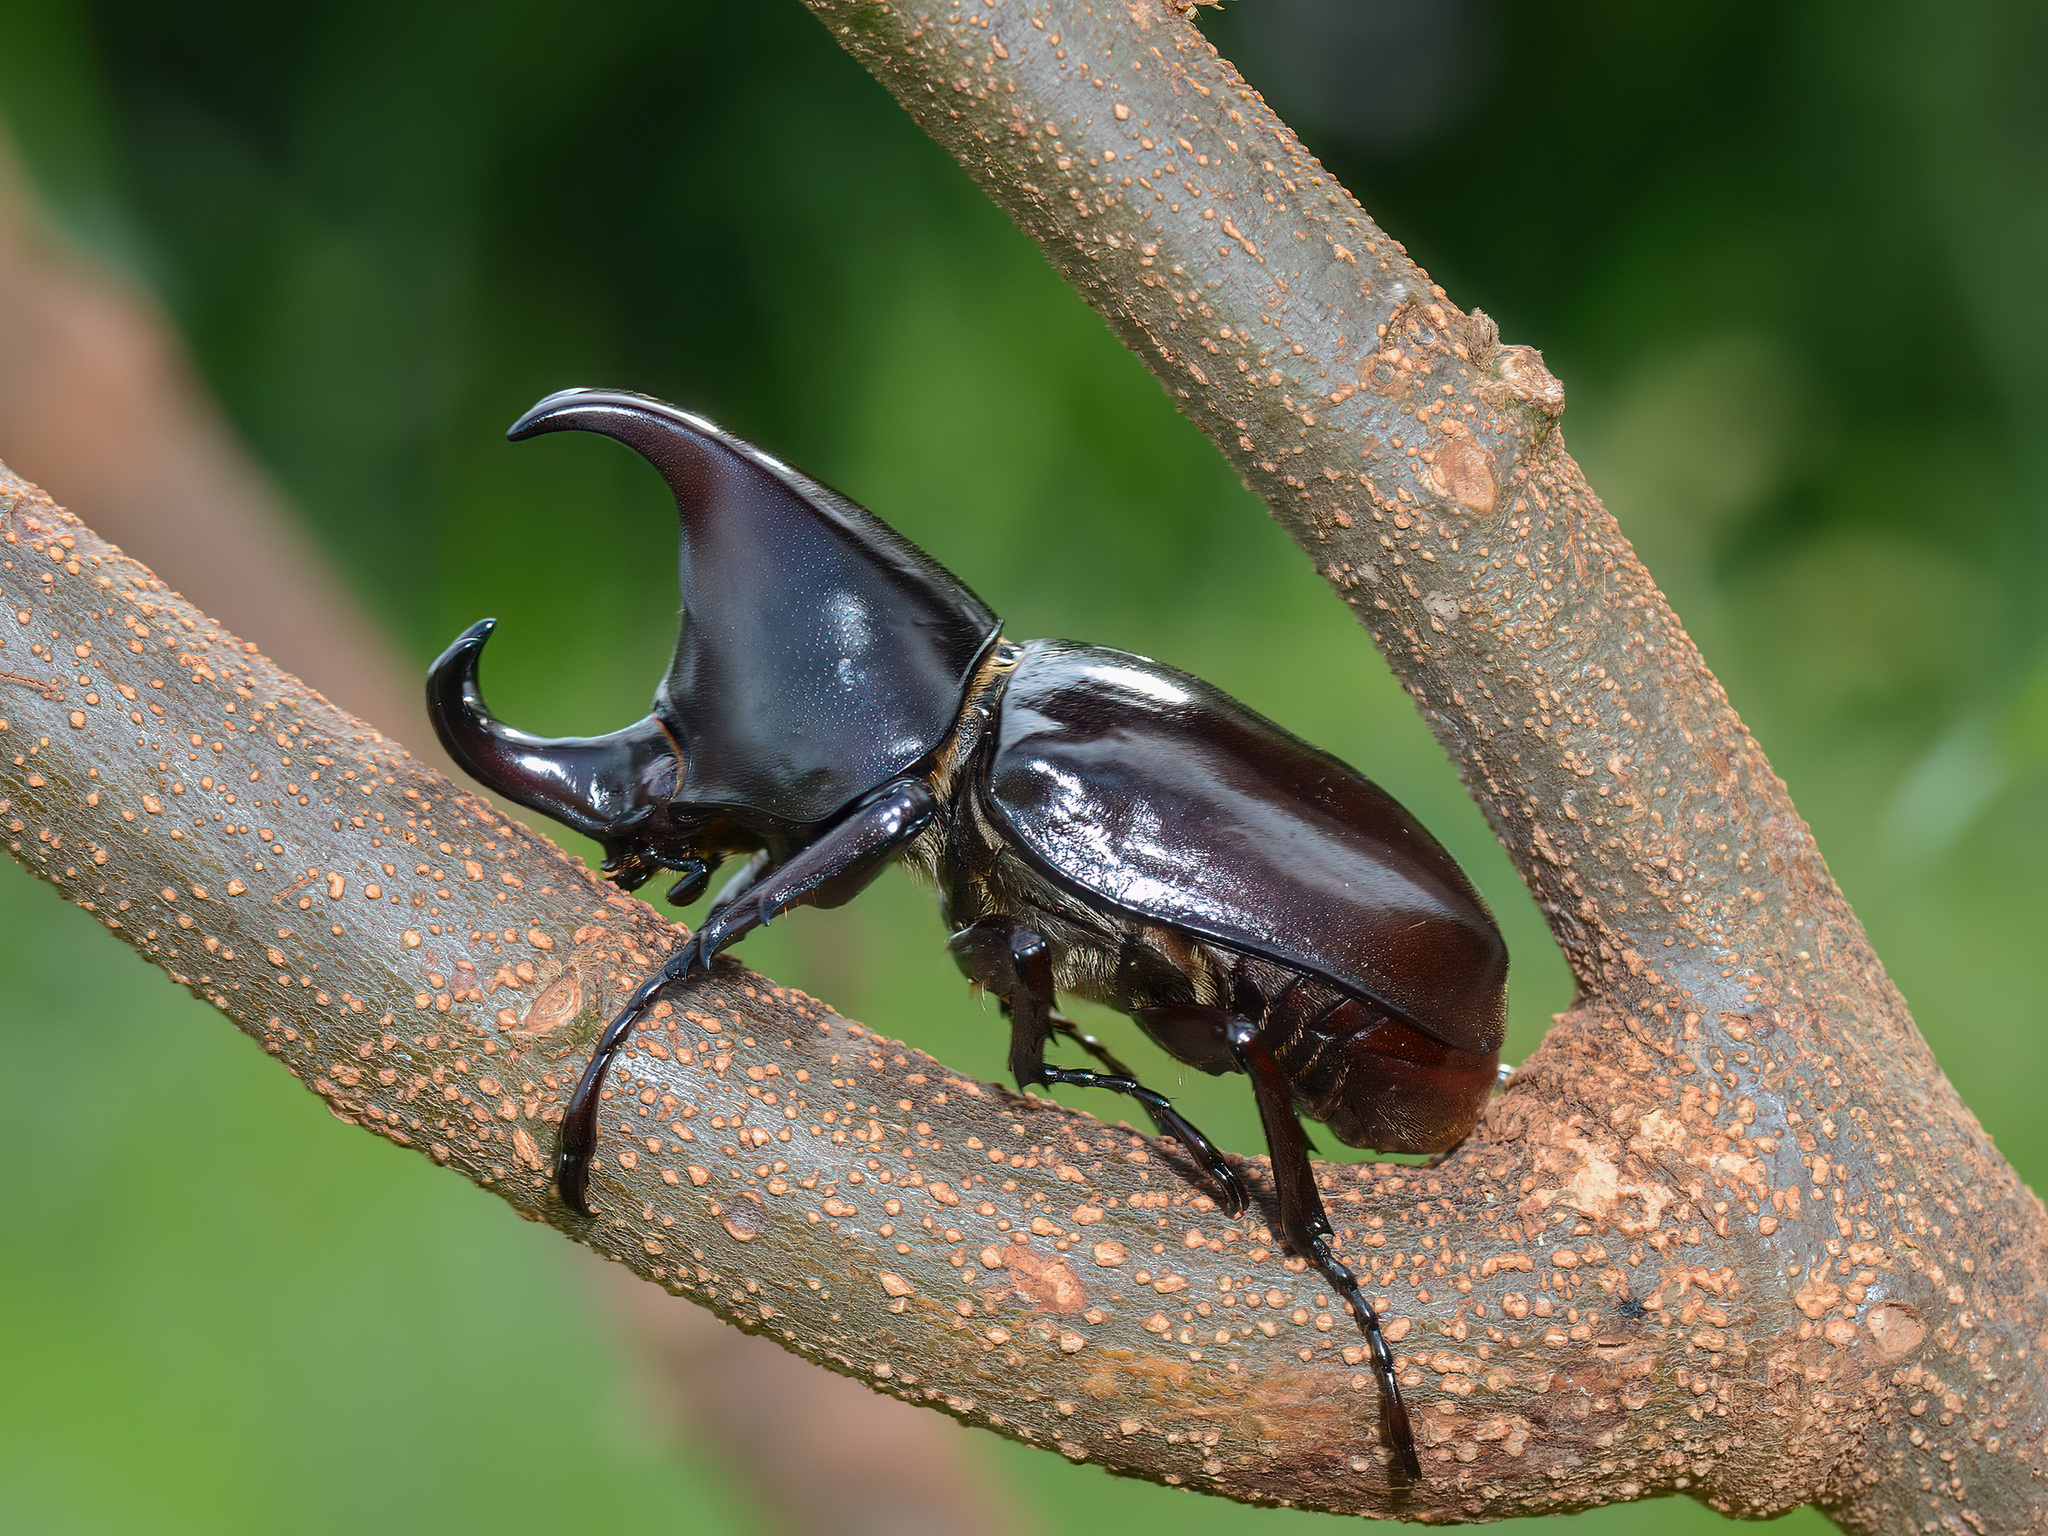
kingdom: Animalia
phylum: Arthropoda
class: Insecta
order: Coleoptera
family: Scarabaeidae
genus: Xylotrupes
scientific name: Xylotrupes beckeri
